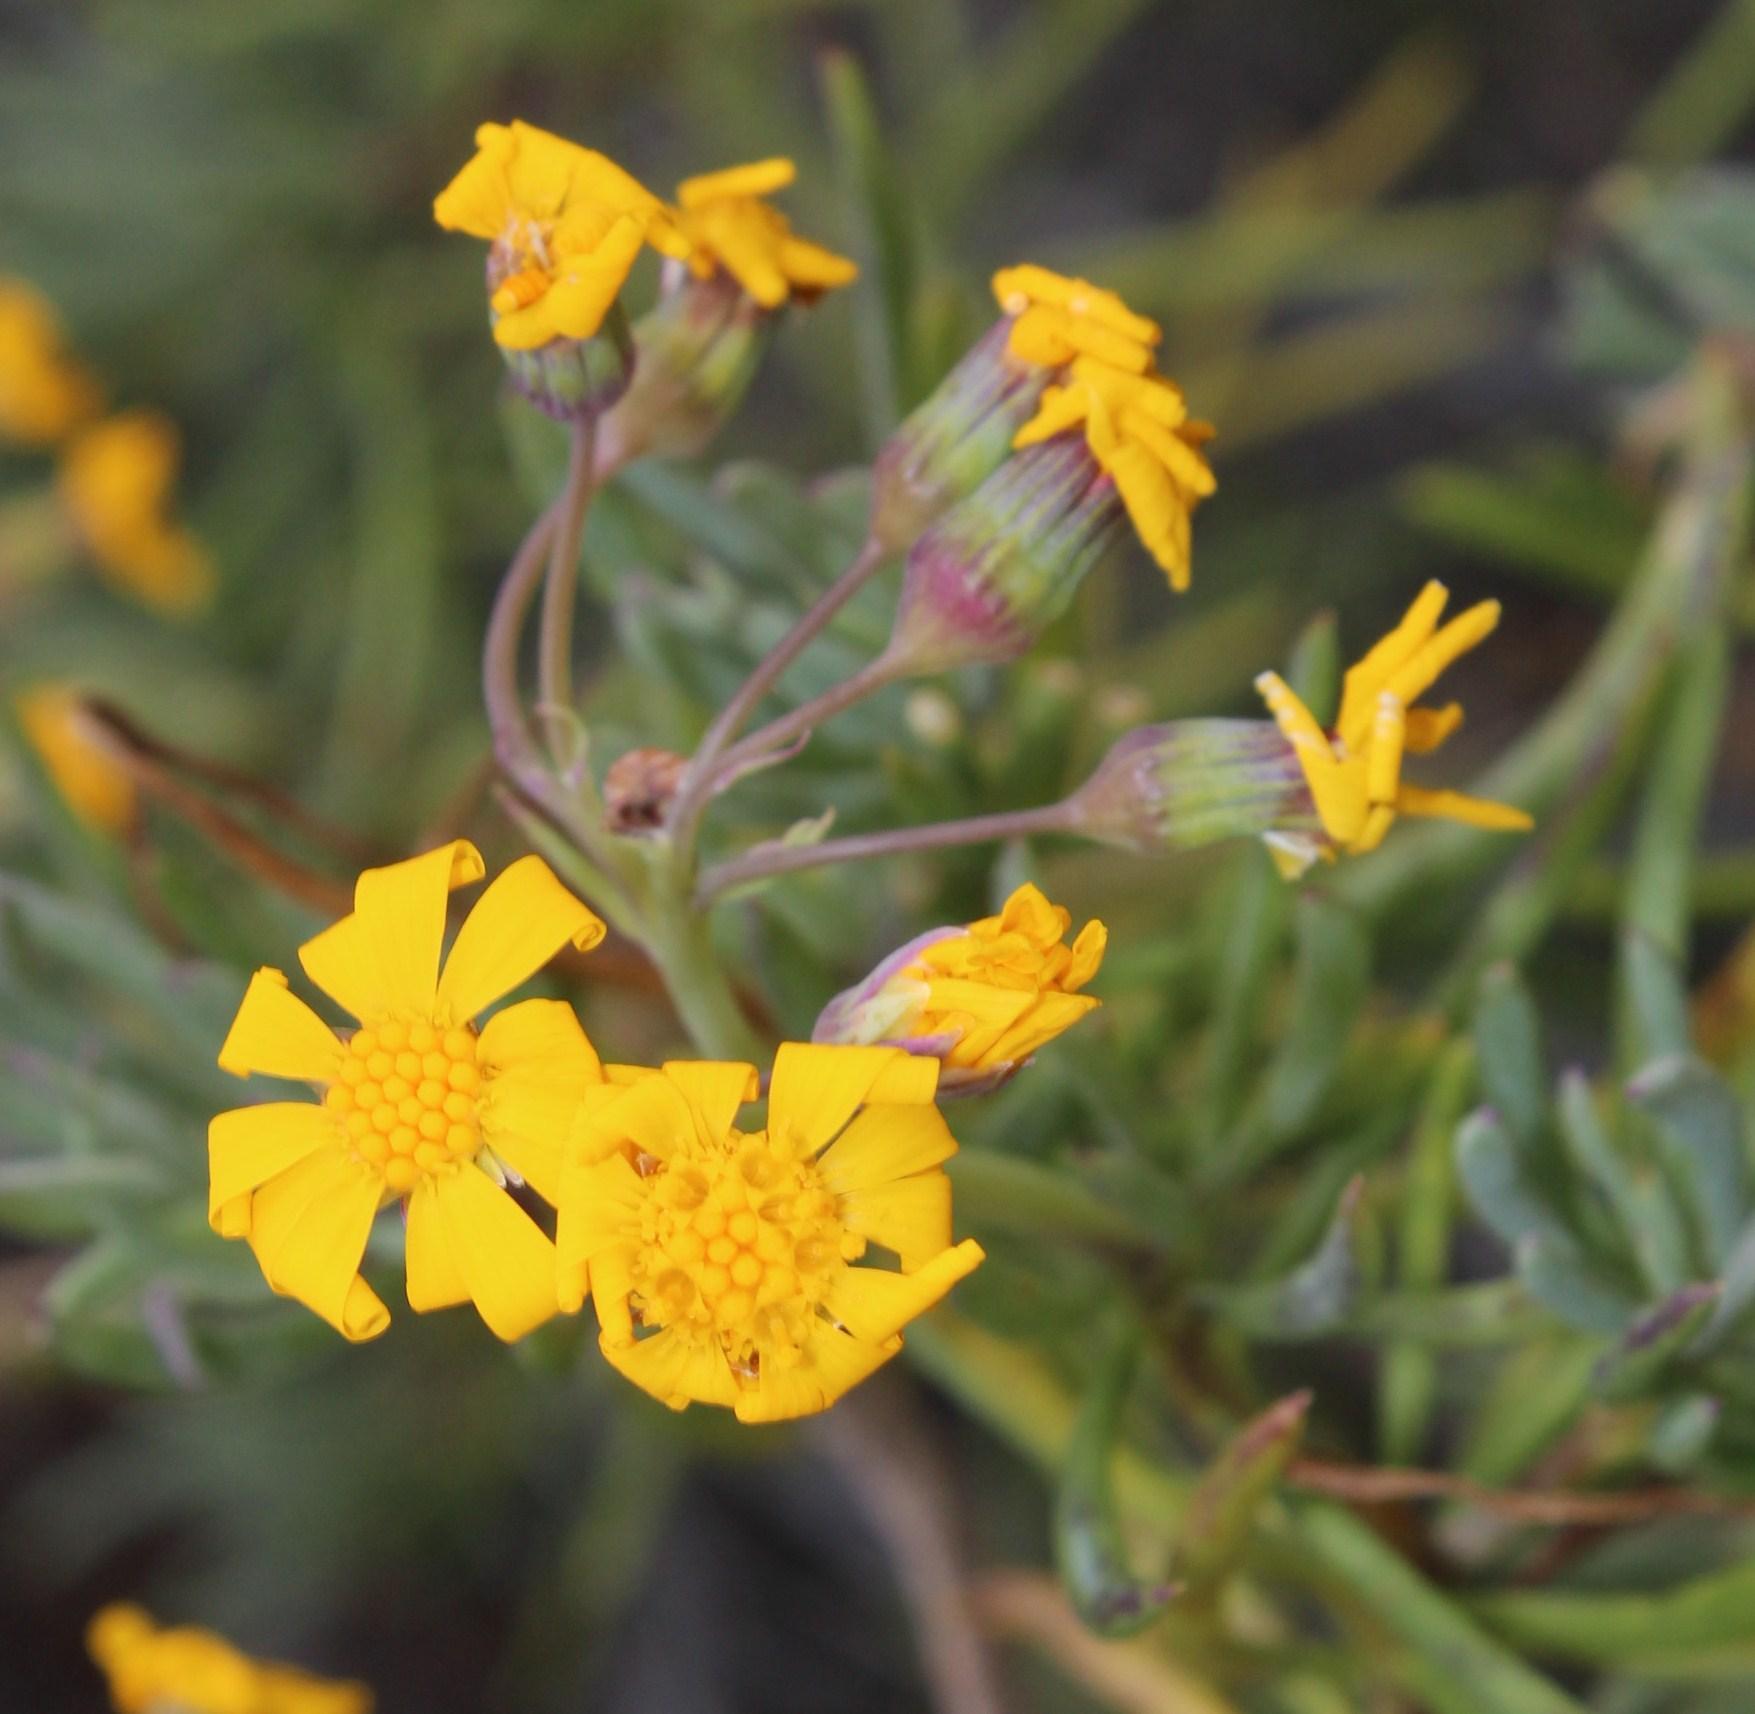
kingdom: Plantae
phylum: Tracheophyta
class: Magnoliopsida
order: Asterales
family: Asteraceae
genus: Crassothonna
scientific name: Crassothonna cylindrica
